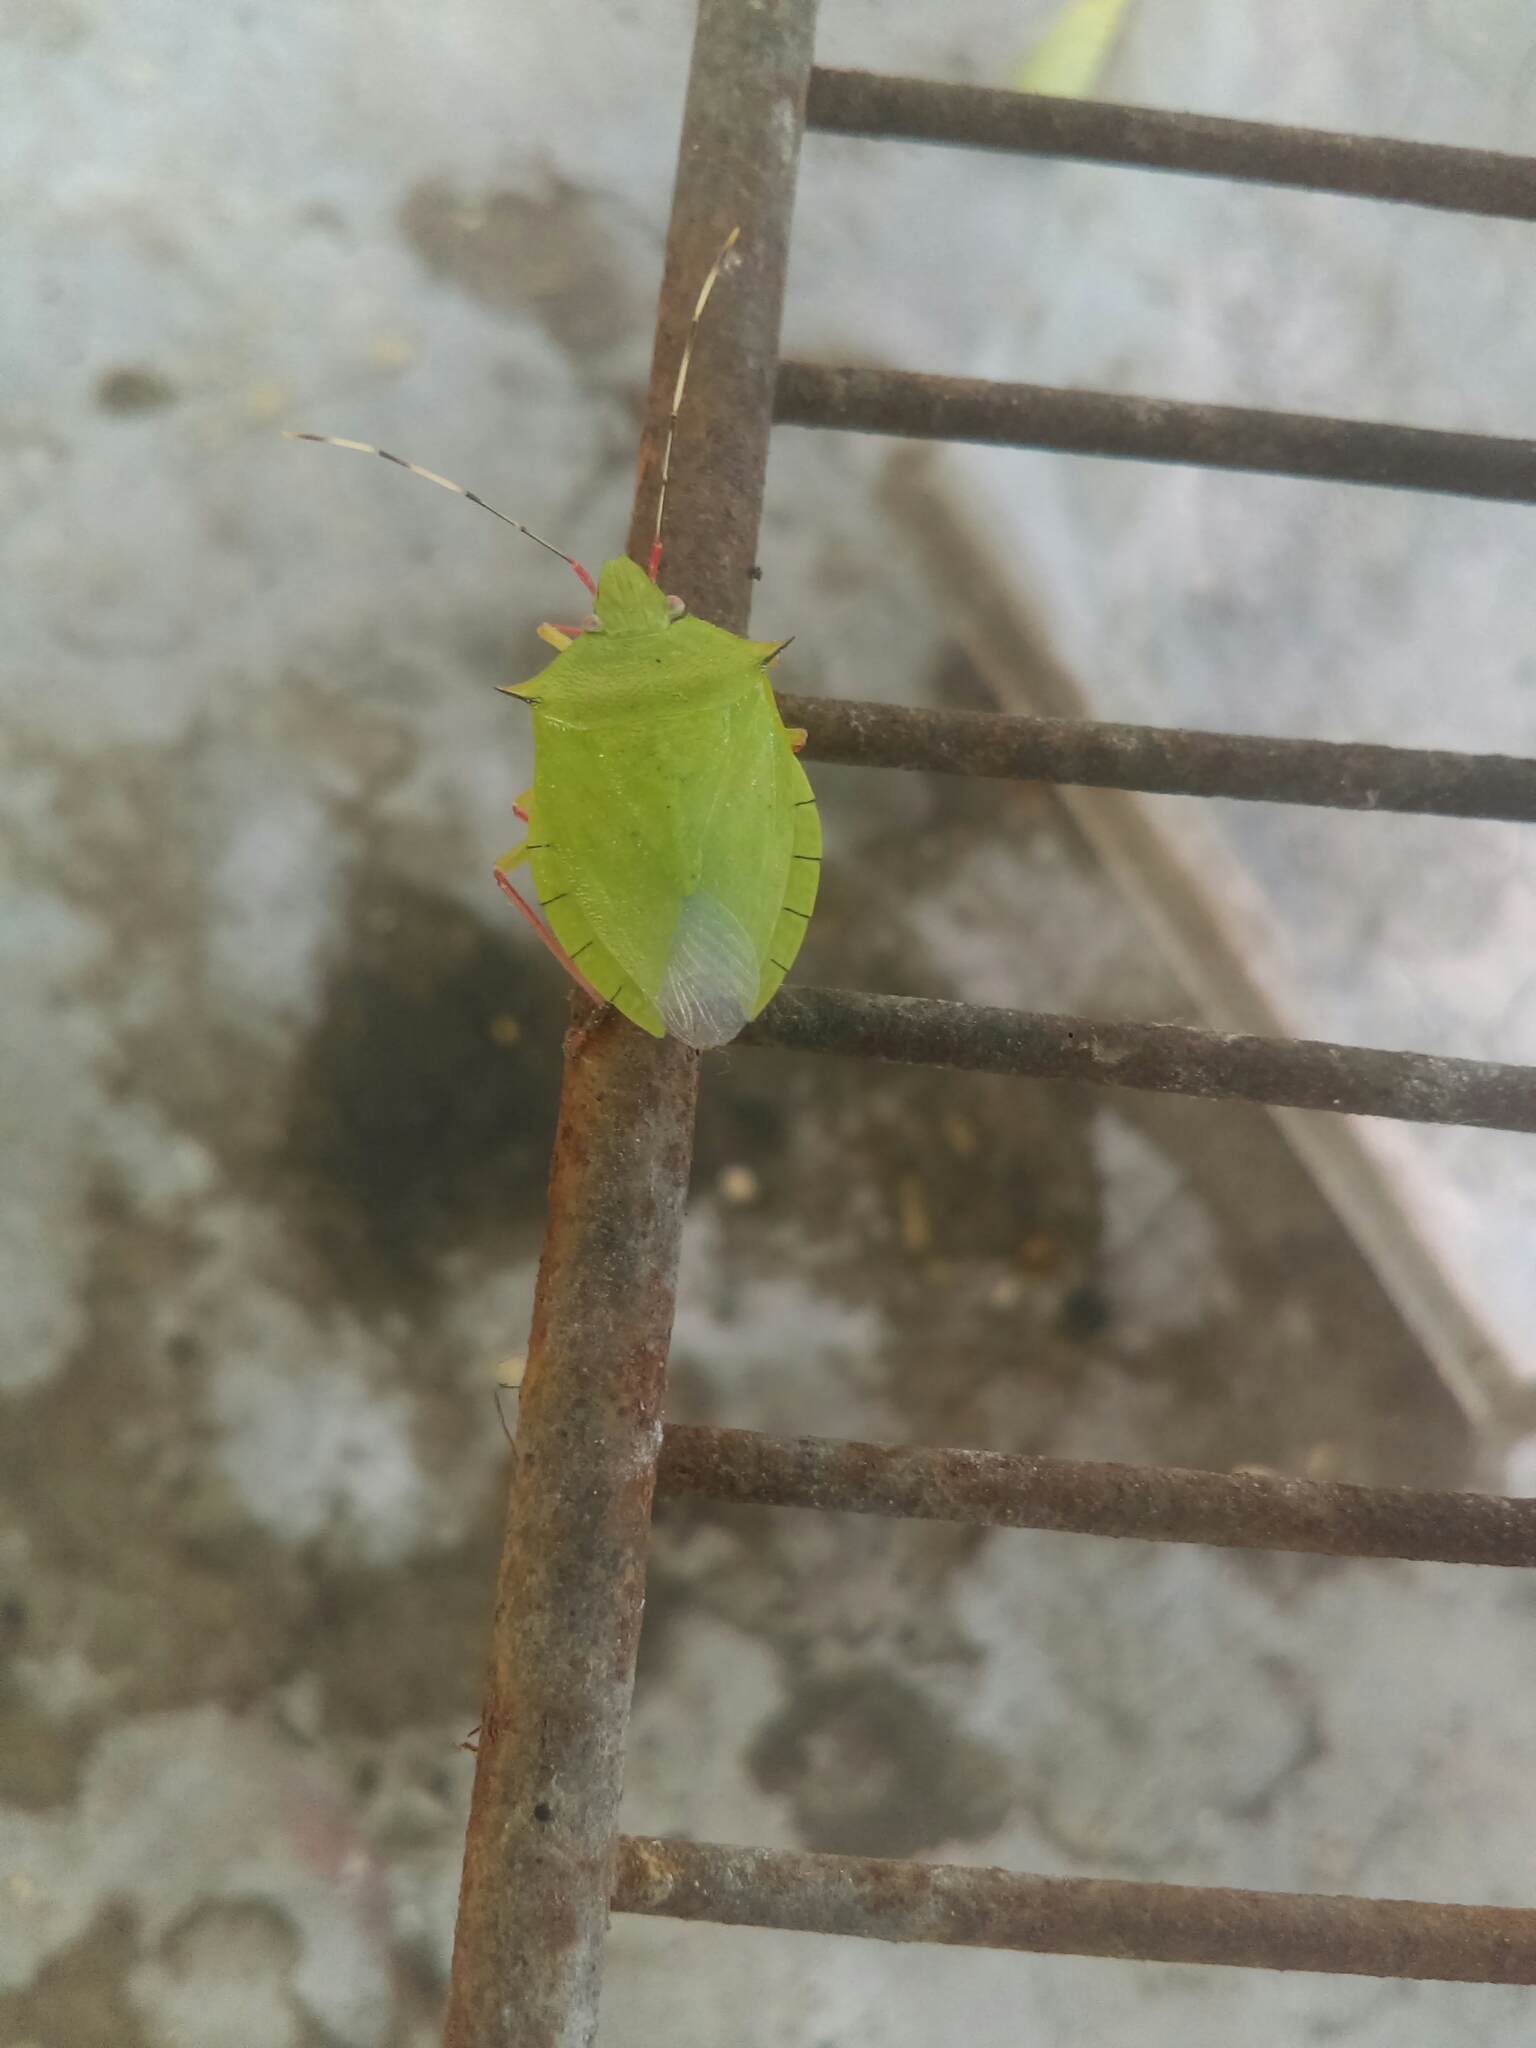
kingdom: Animalia
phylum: Arthropoda
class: Insecta
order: Hemiptera
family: Pentatomidae
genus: Chlorocoris
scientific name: Chlorocoris distinctus
